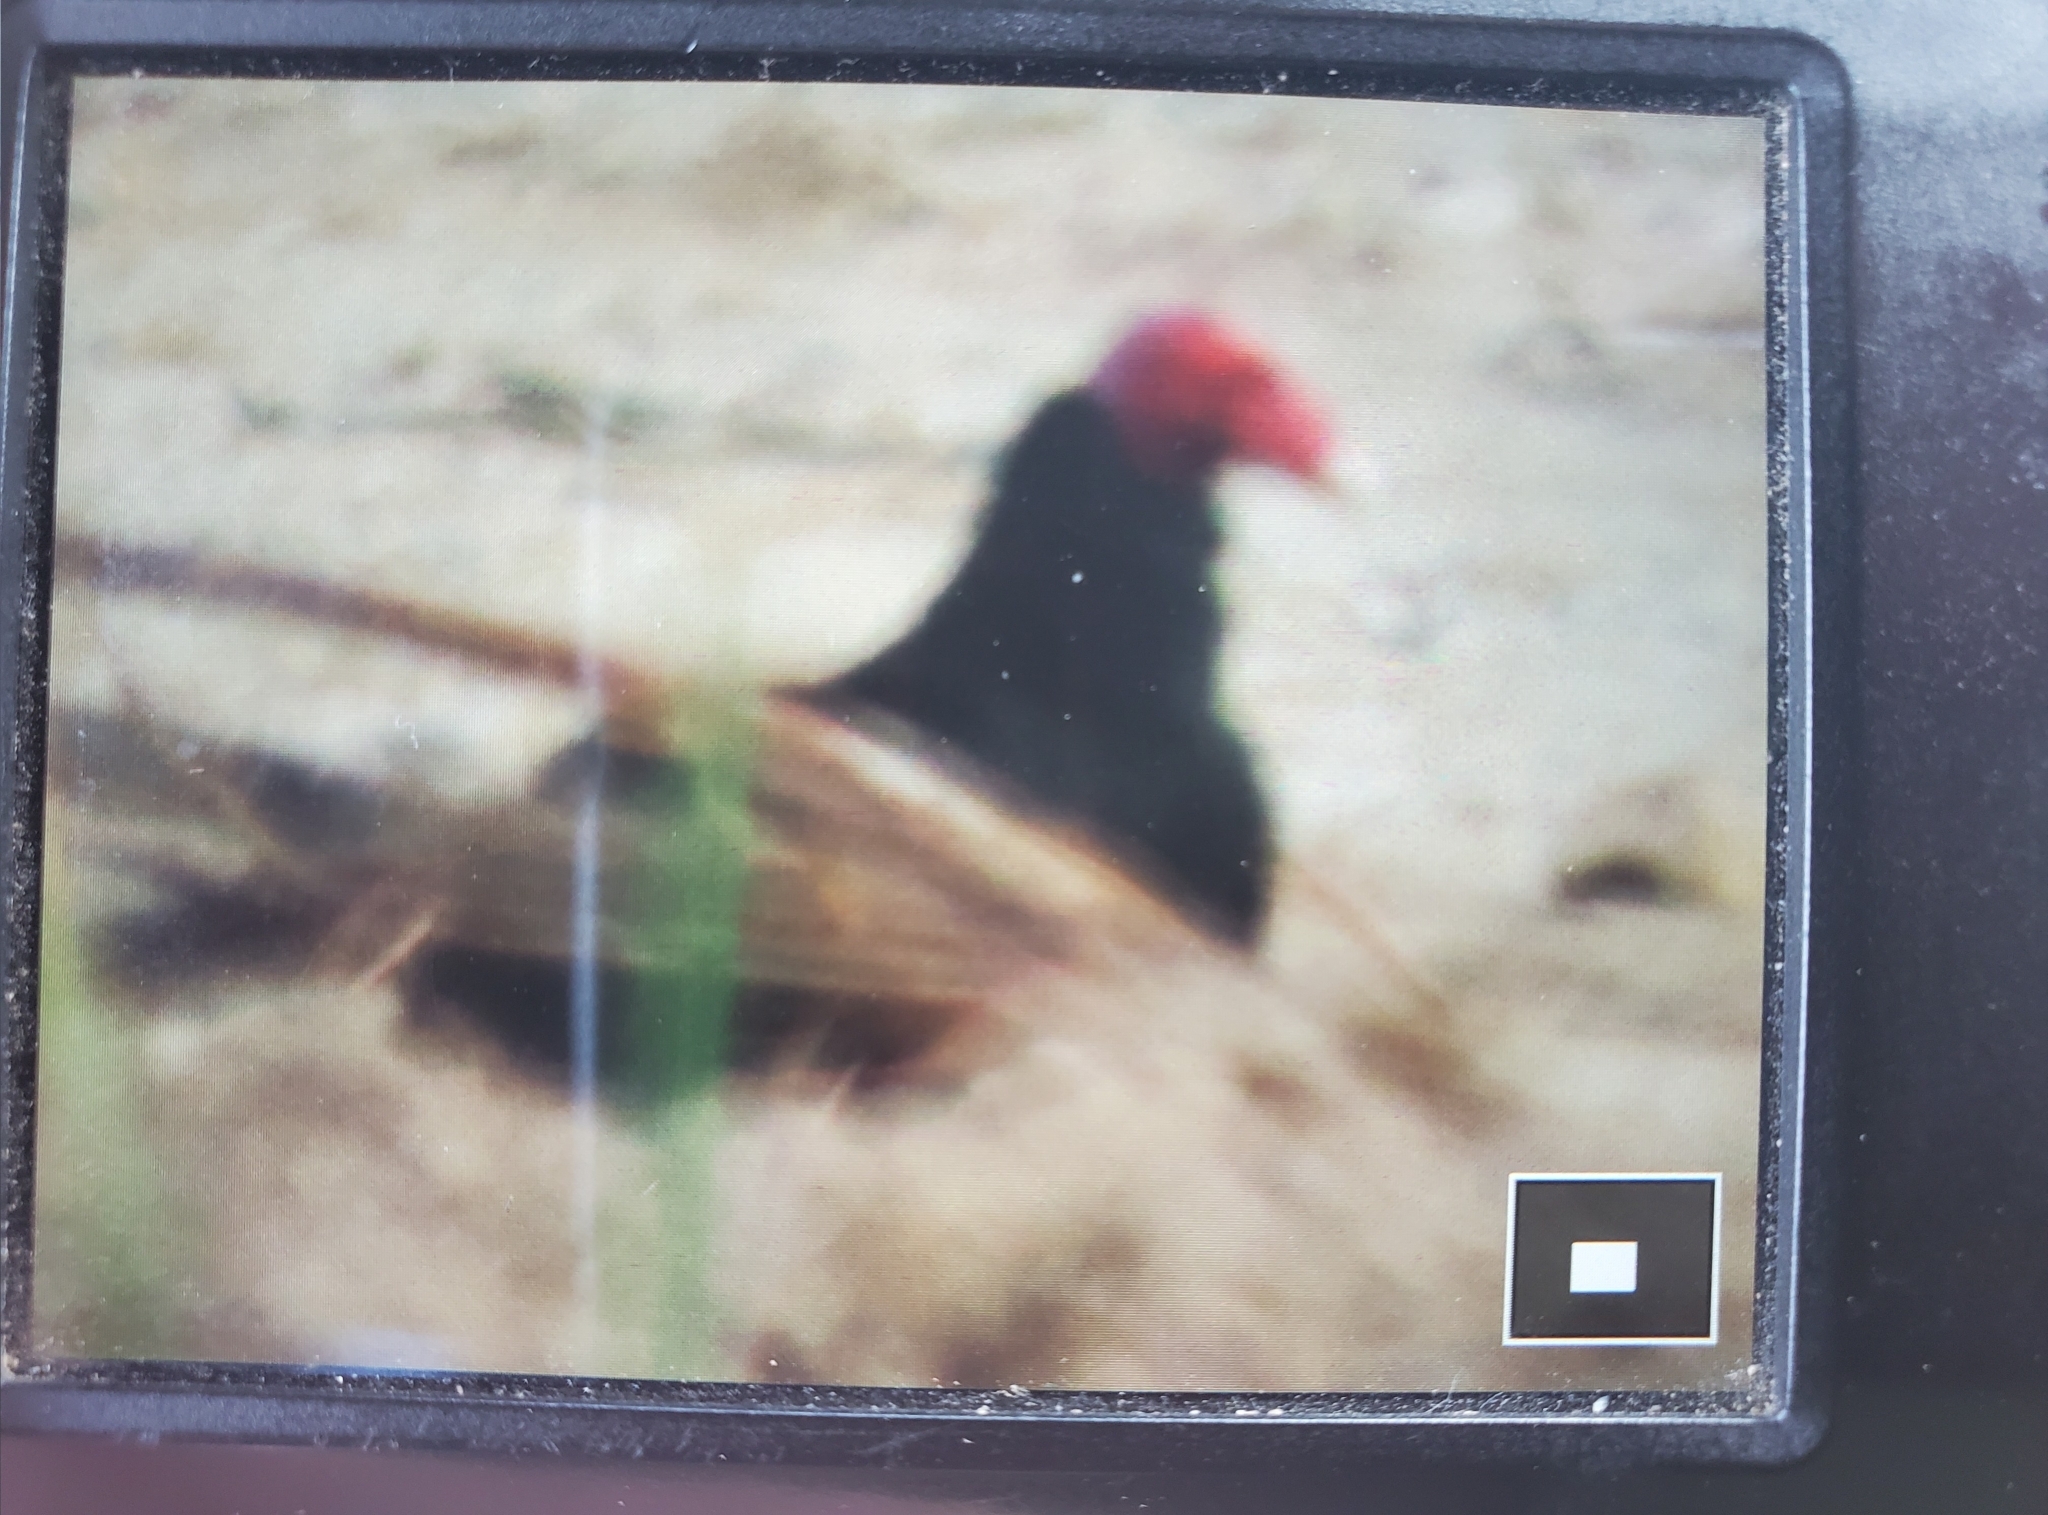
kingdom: Animalia
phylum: Chordata
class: Aves
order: Accipitriformes
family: Cathartidae
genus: Cathartes
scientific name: Cathartes aura
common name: Turkey vulture
